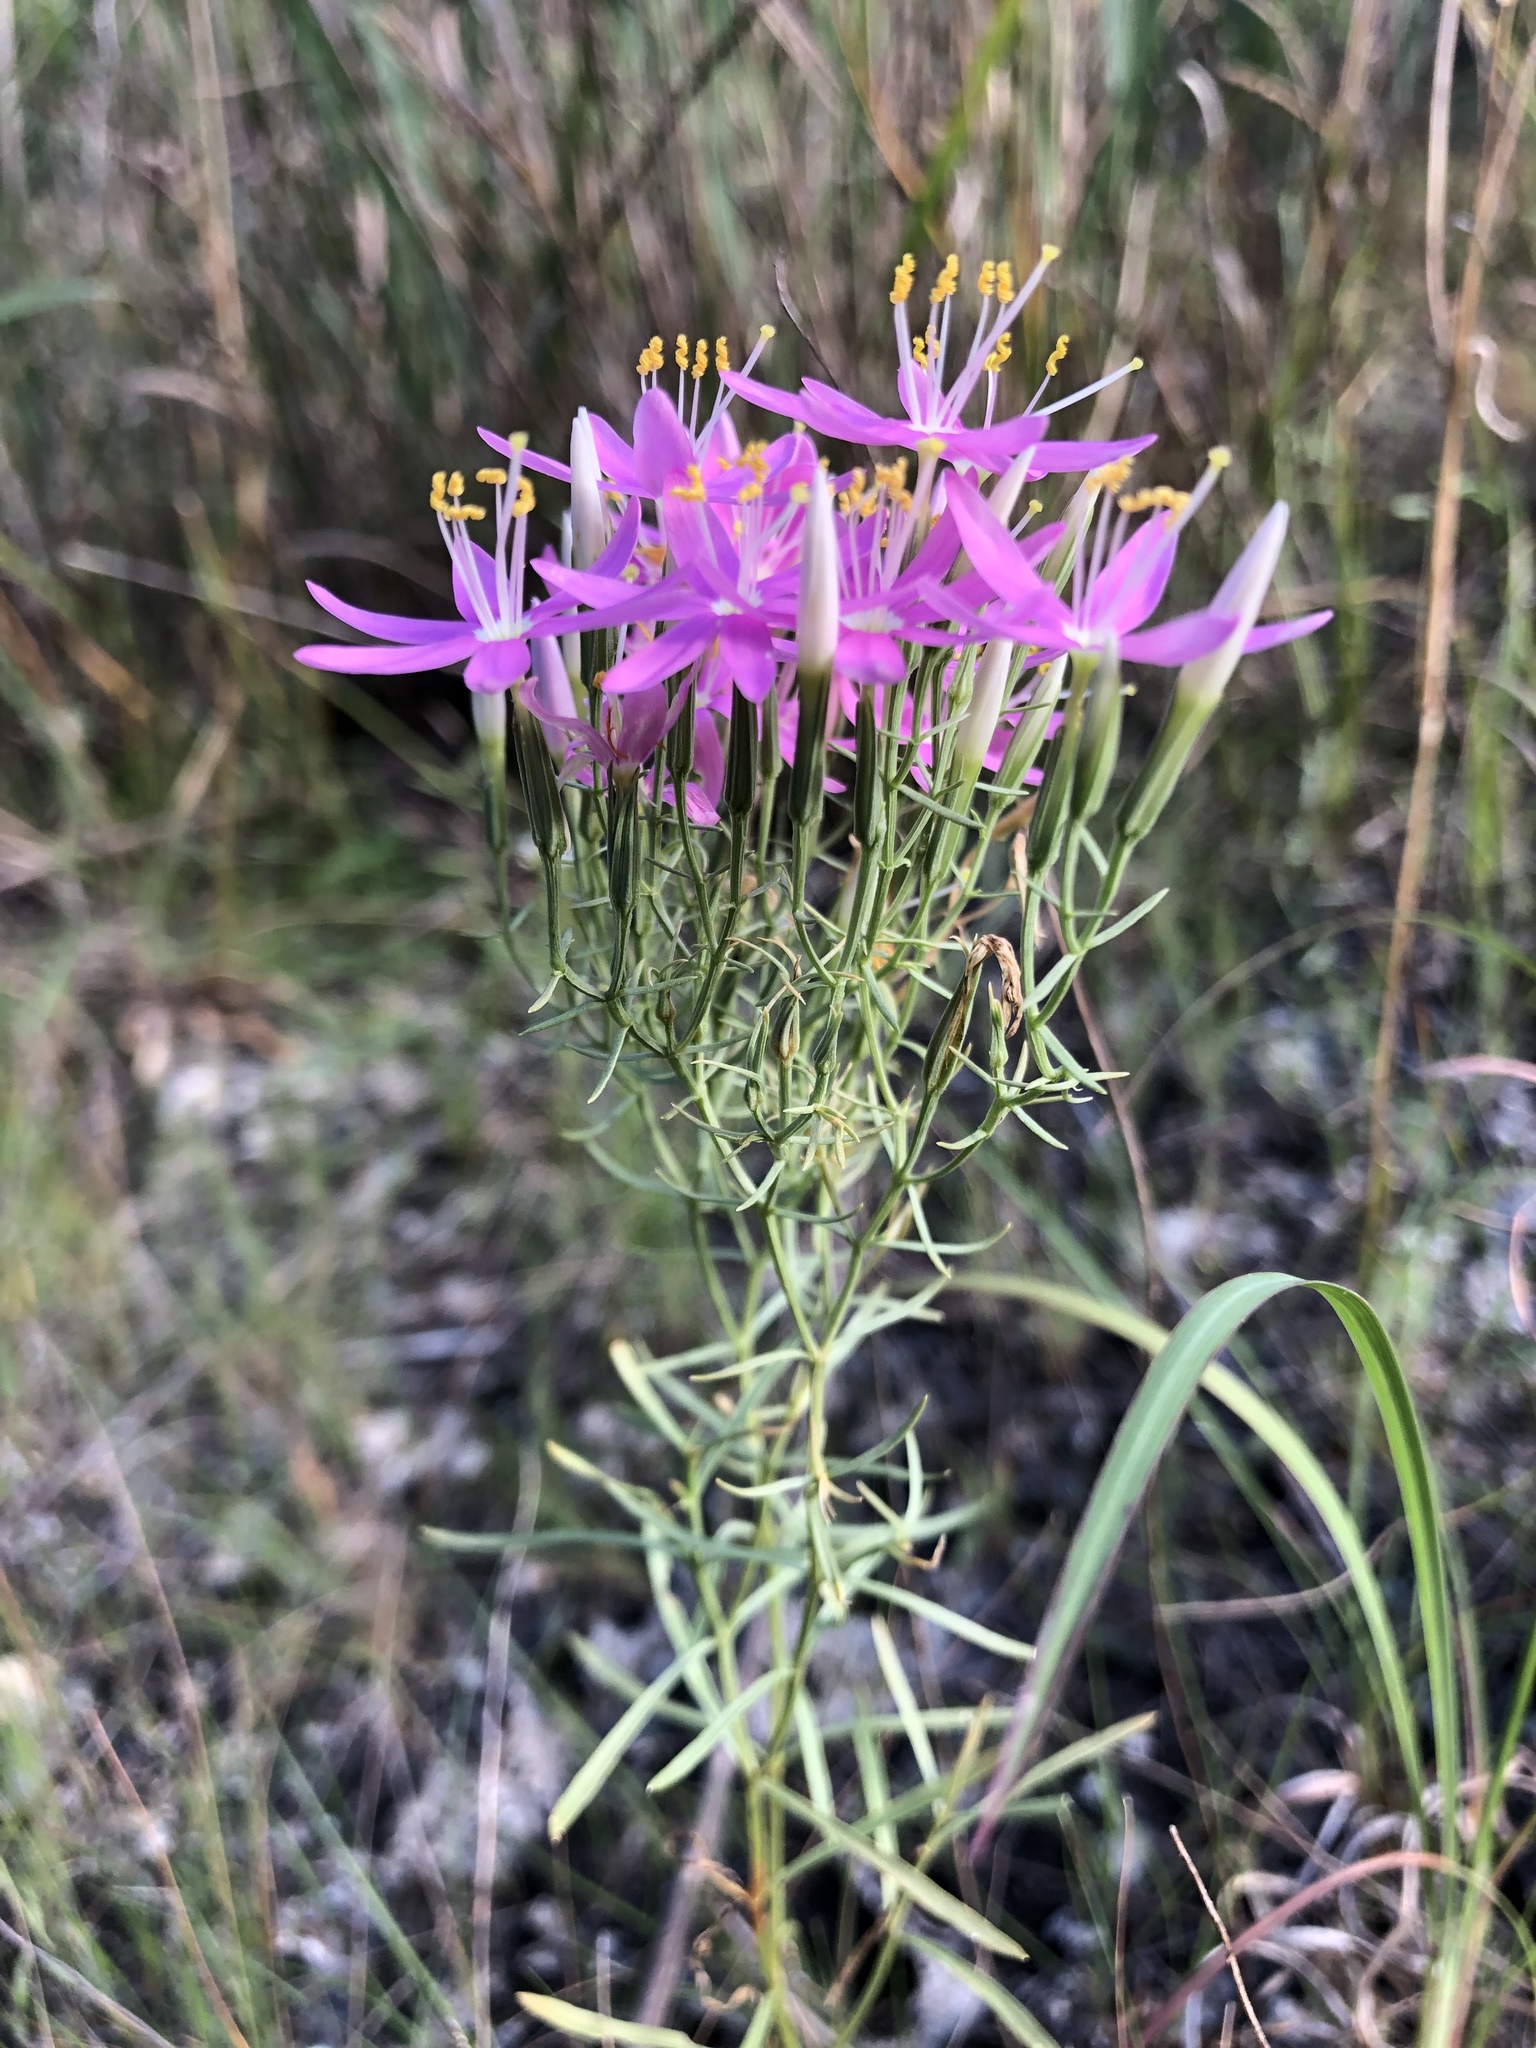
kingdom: Plantae
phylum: Tracheophyta
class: Magnoliopsida
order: Gentianales
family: Gentianaceae
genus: Zeltnera
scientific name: Zeltnera beyrichii
